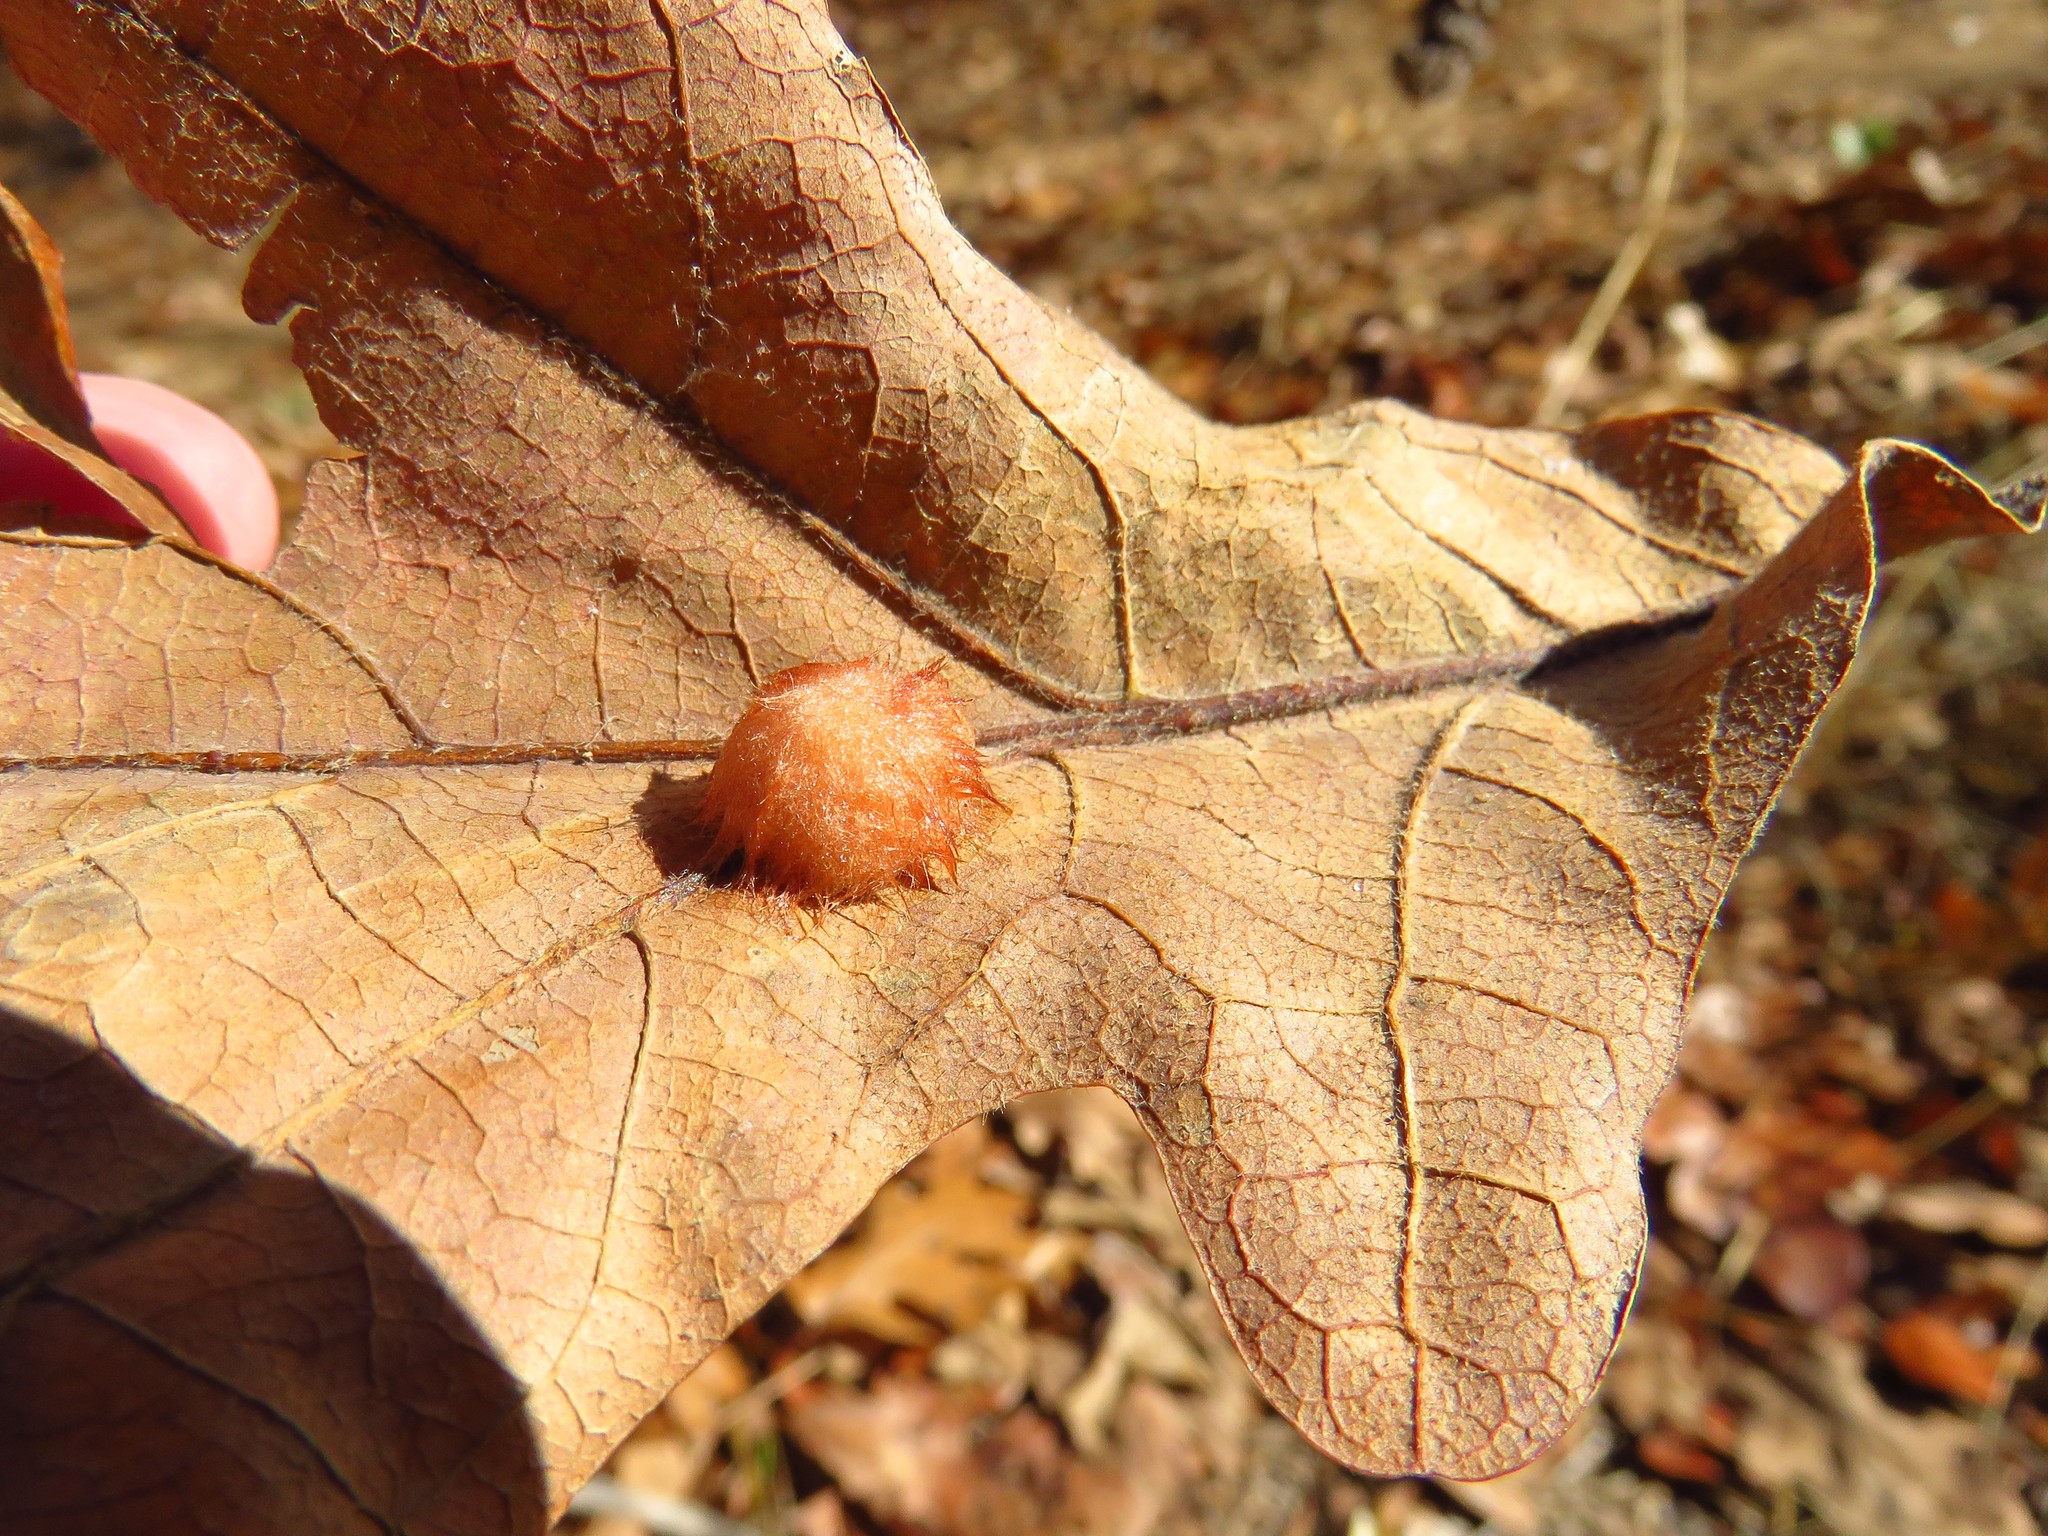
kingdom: Animalia
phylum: Arthropoda
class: Insecta
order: Hymenoptera
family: Cynipidae
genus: Andricus
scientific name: Andricus Druon pattoni
